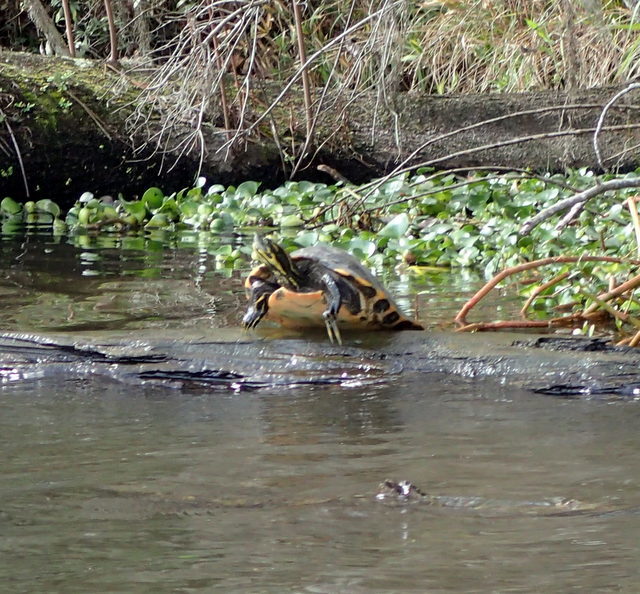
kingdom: Animalia
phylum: Chordata
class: Testudines
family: Emydidae
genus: Pseudemys
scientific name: Pseudemys concinna
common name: Eastern river cooter
